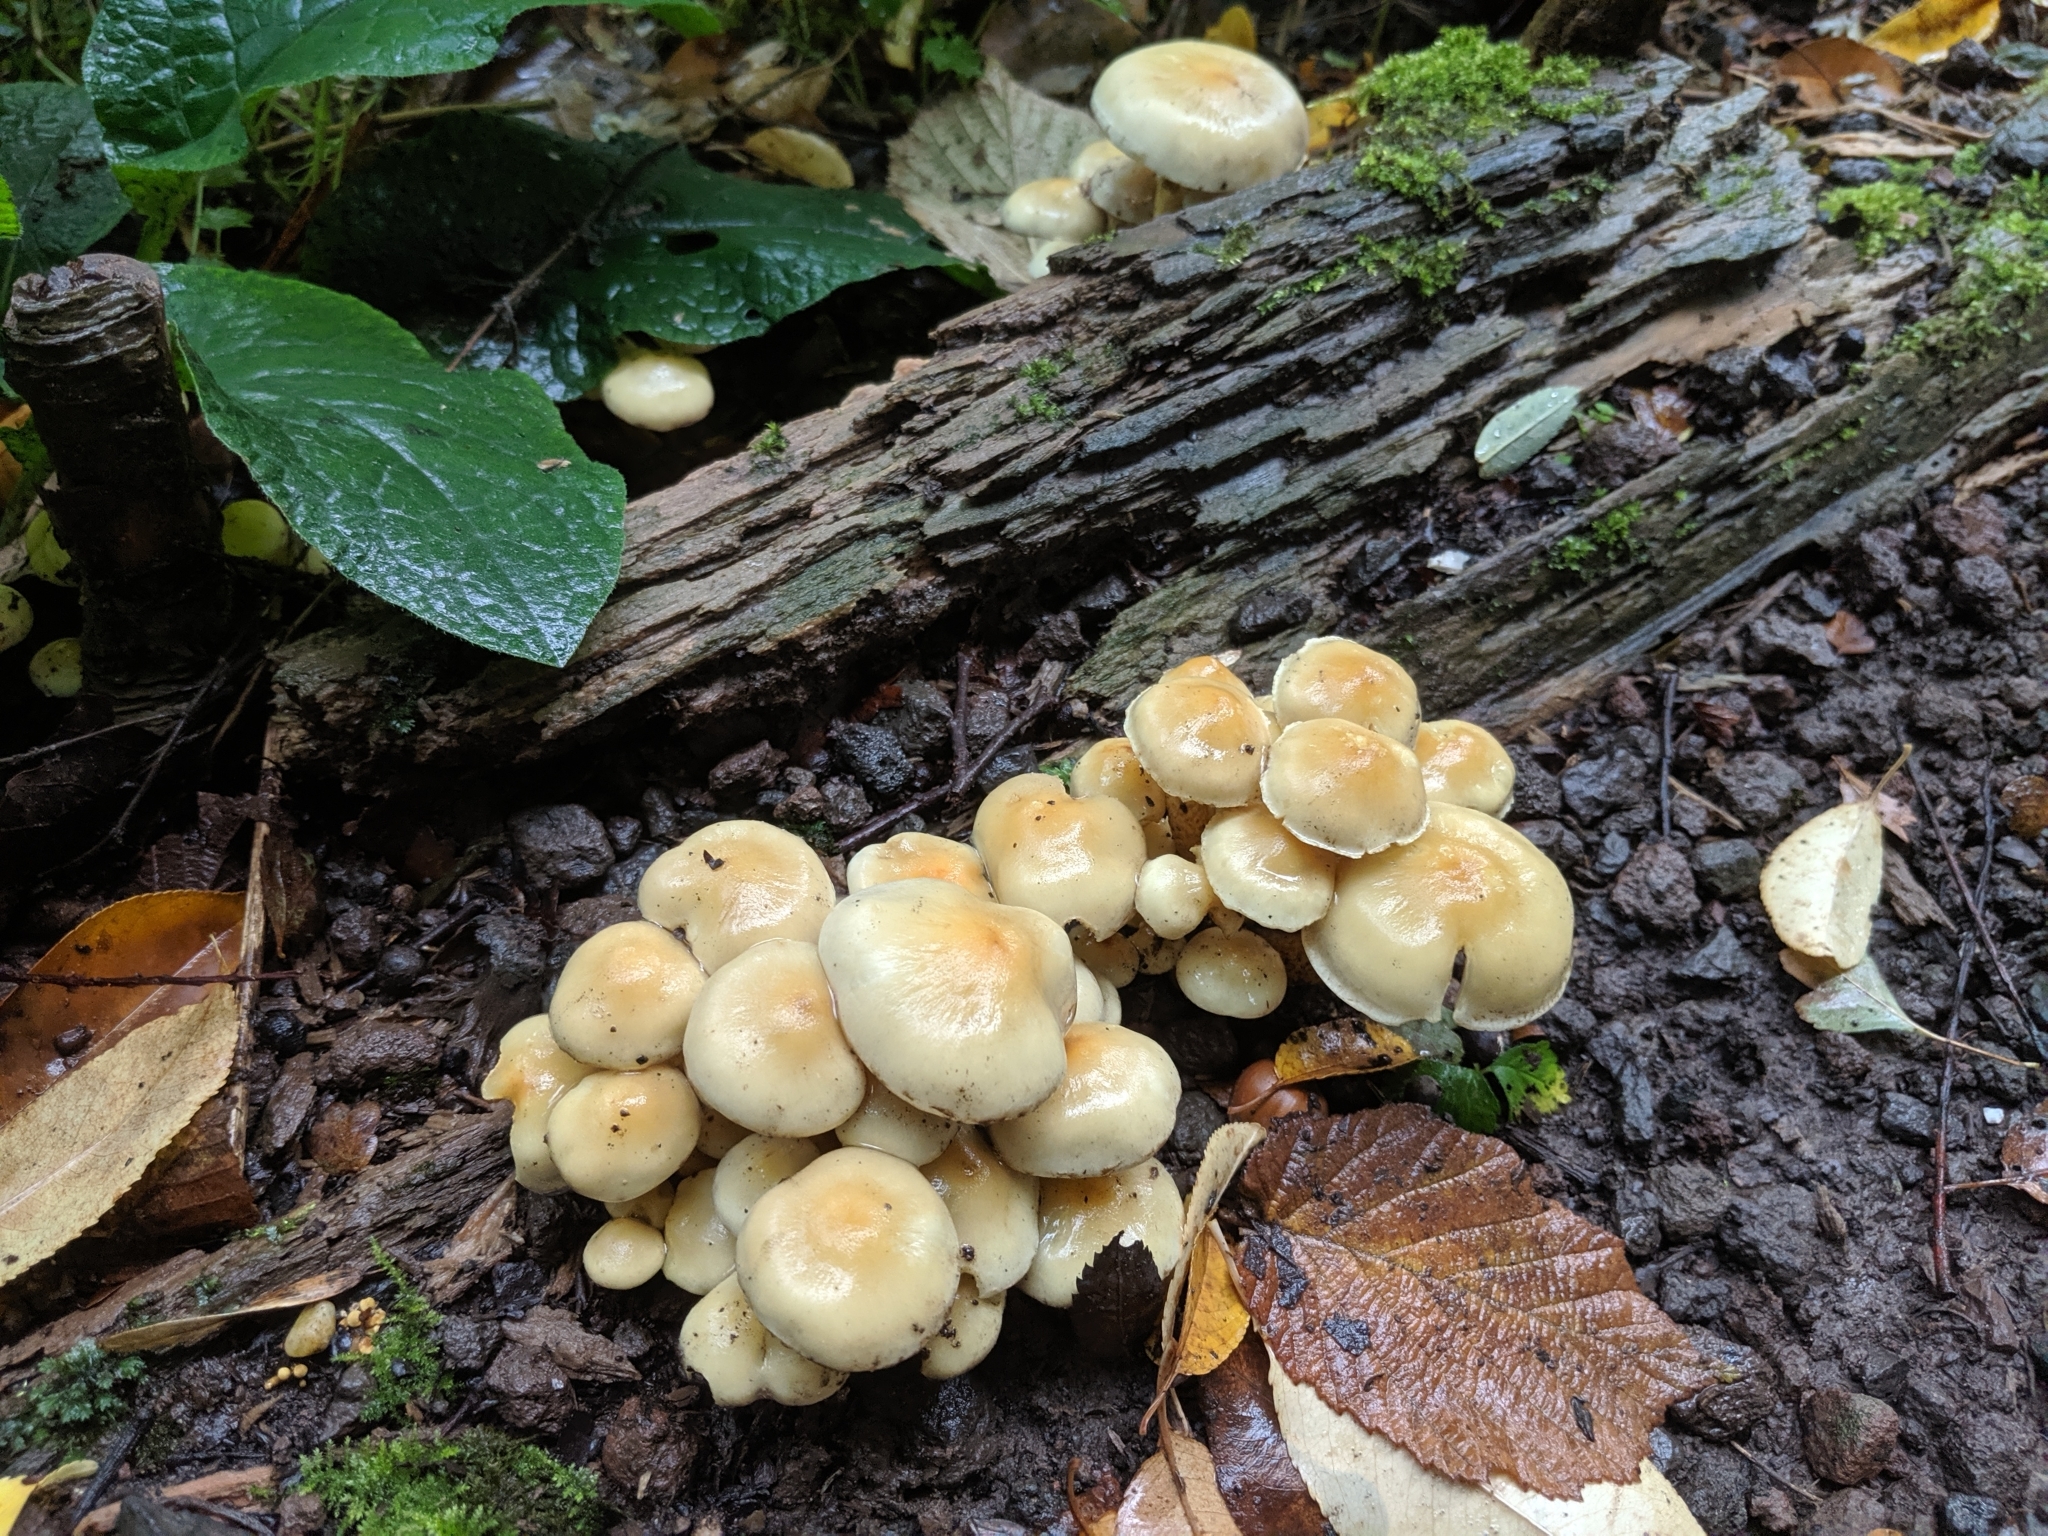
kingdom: Fungi
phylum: Basidiomycota
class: Agaricomycetes
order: Agaricales
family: Strophariaceae
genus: Hypholoma
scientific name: Hypholoma fasciculare
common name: Sulphur tuft
